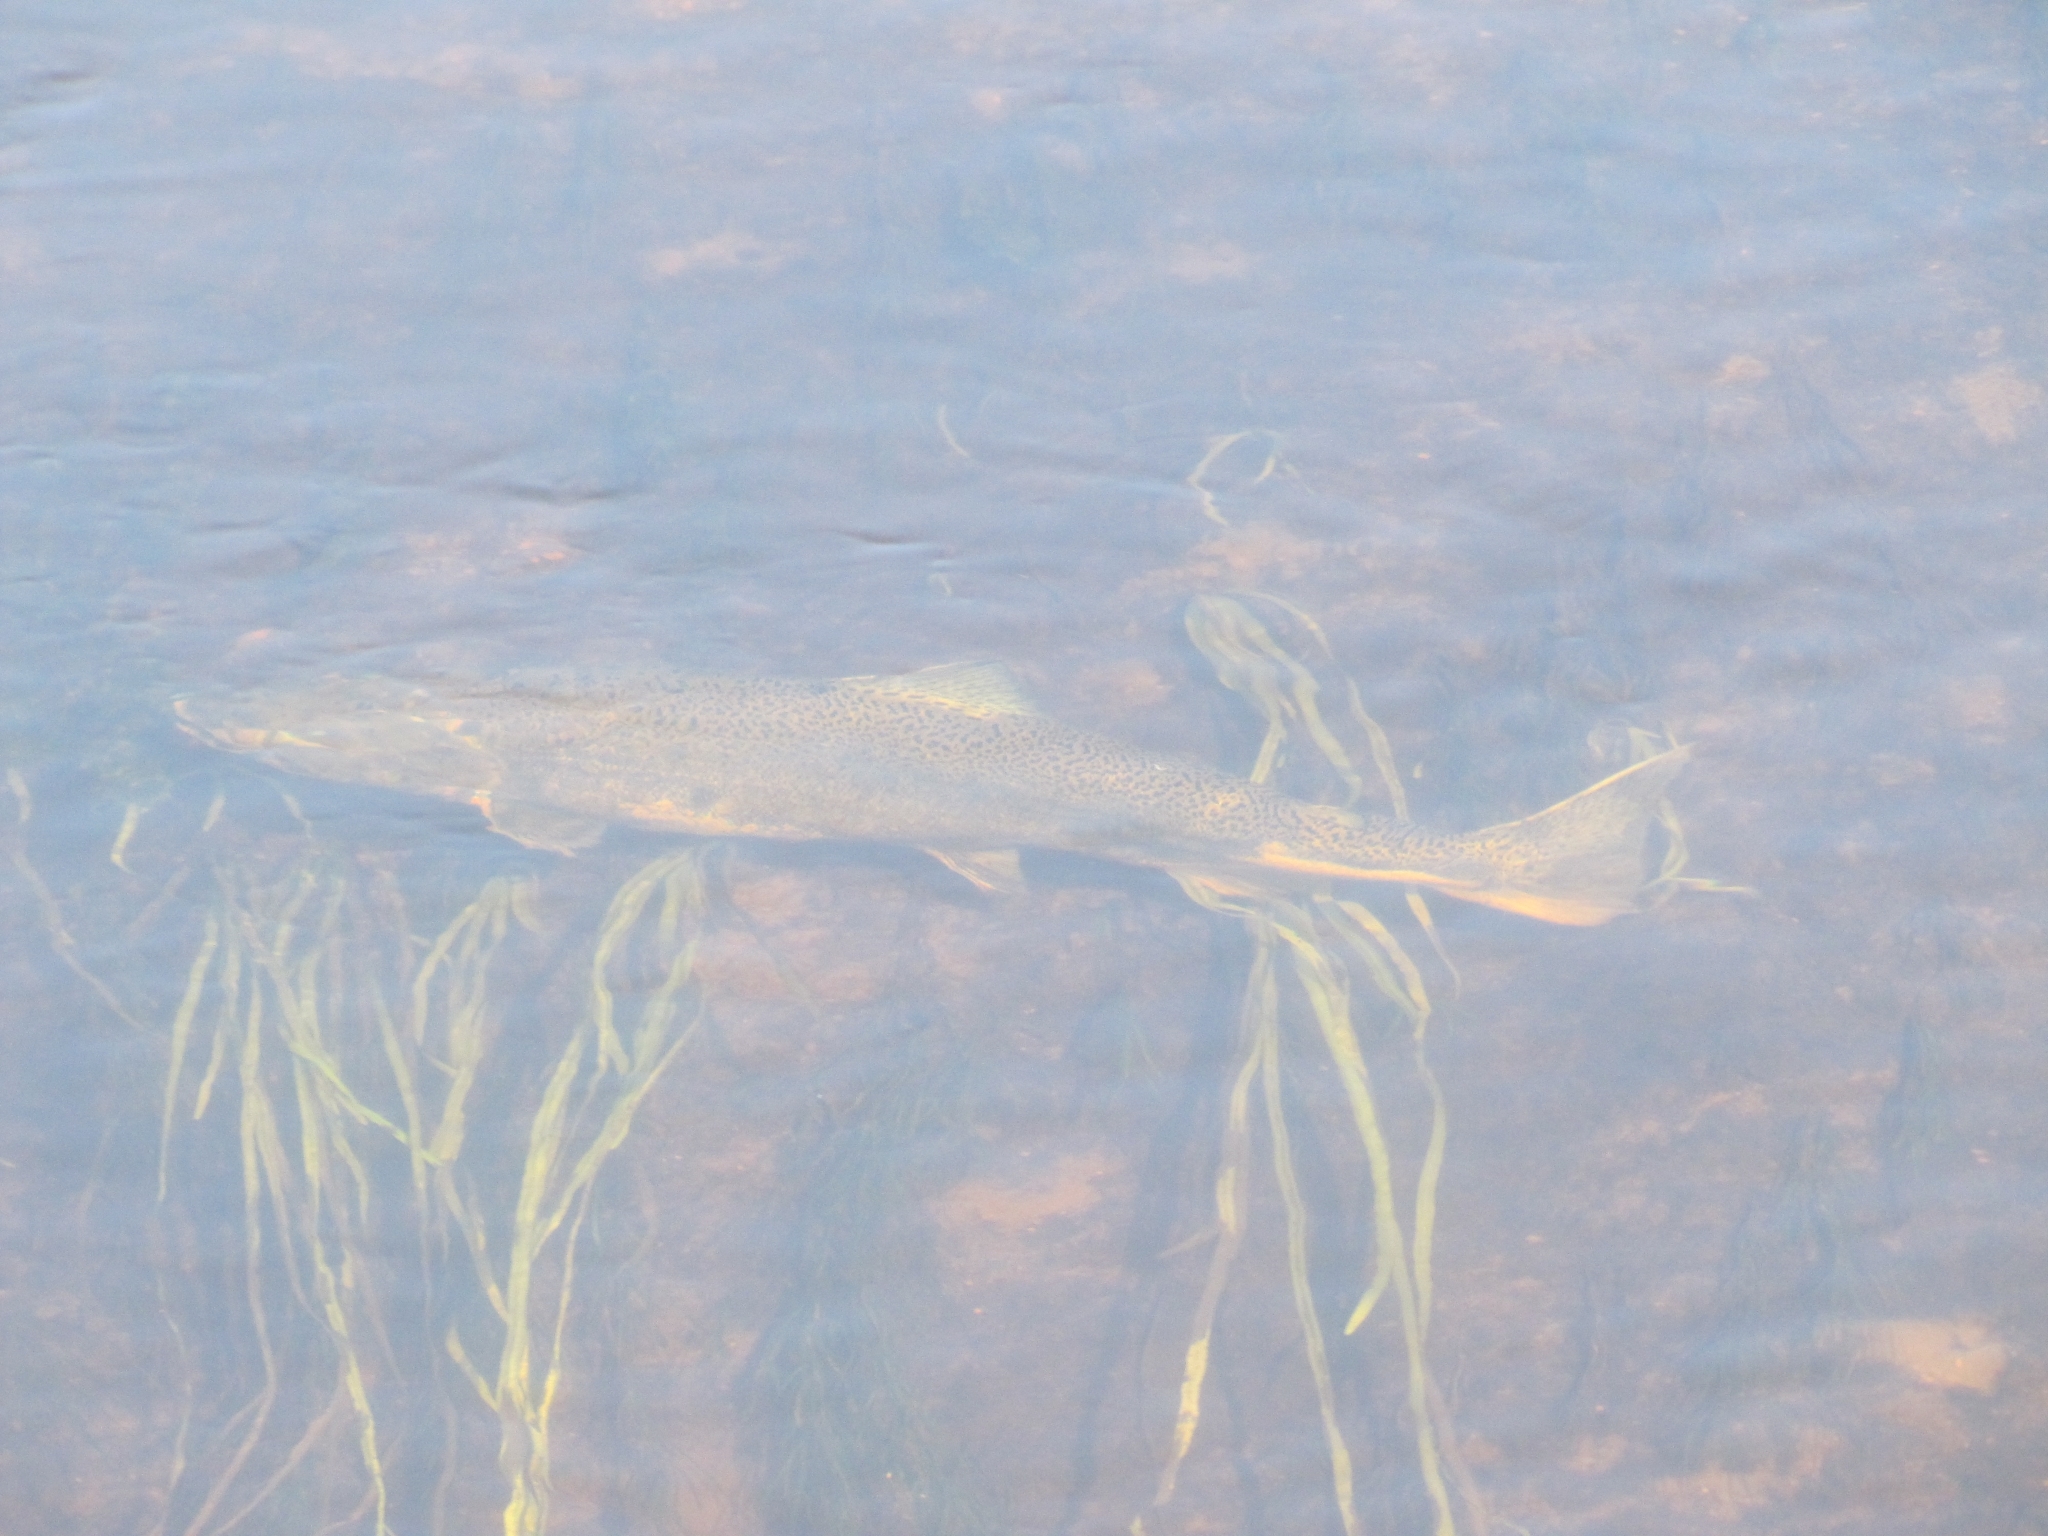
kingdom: Animalia
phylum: Chordata
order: Salmoniformes
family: Salmonidae
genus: Oncorhynchus
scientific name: Oncorhynchus tshawytscha
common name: Chinook salmon
